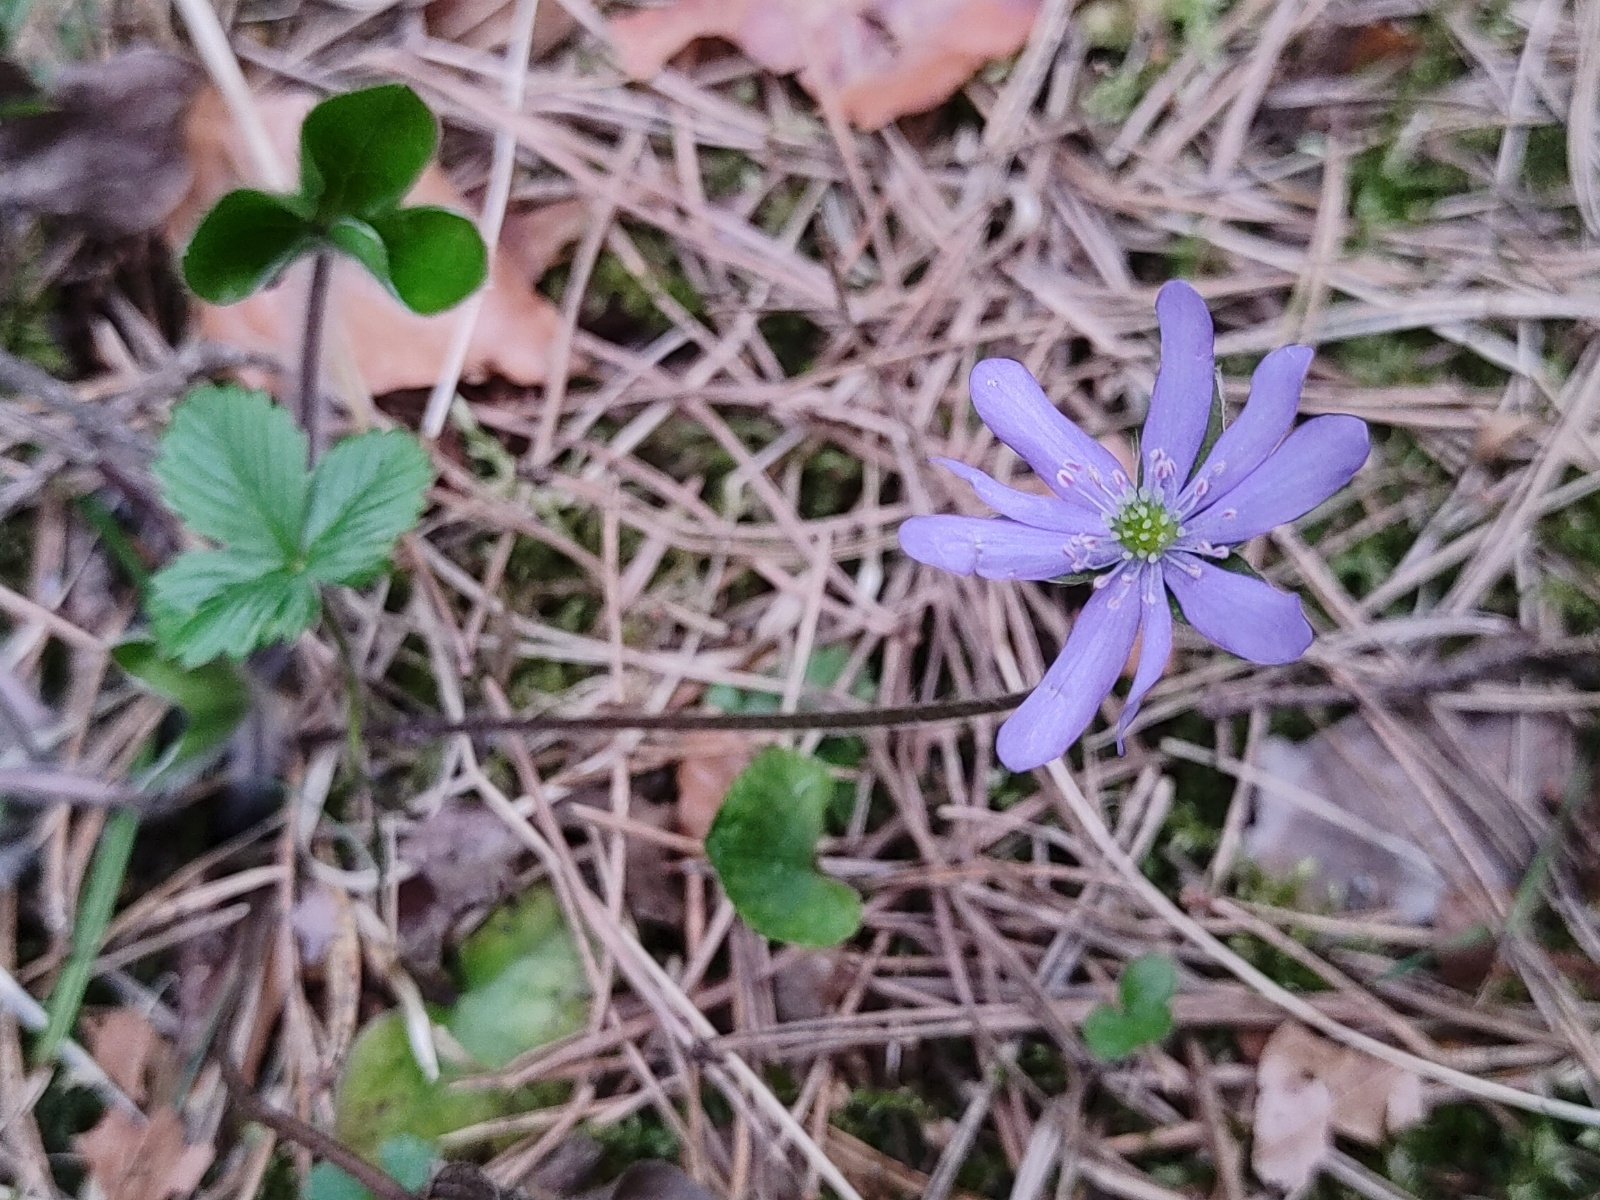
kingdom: Plantae
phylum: Tracheophyta
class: Magnoliopsida
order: Ranunculales
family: Ranunculaceae
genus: Hepatica
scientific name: Hepatica nobilis
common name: Liverleaf
